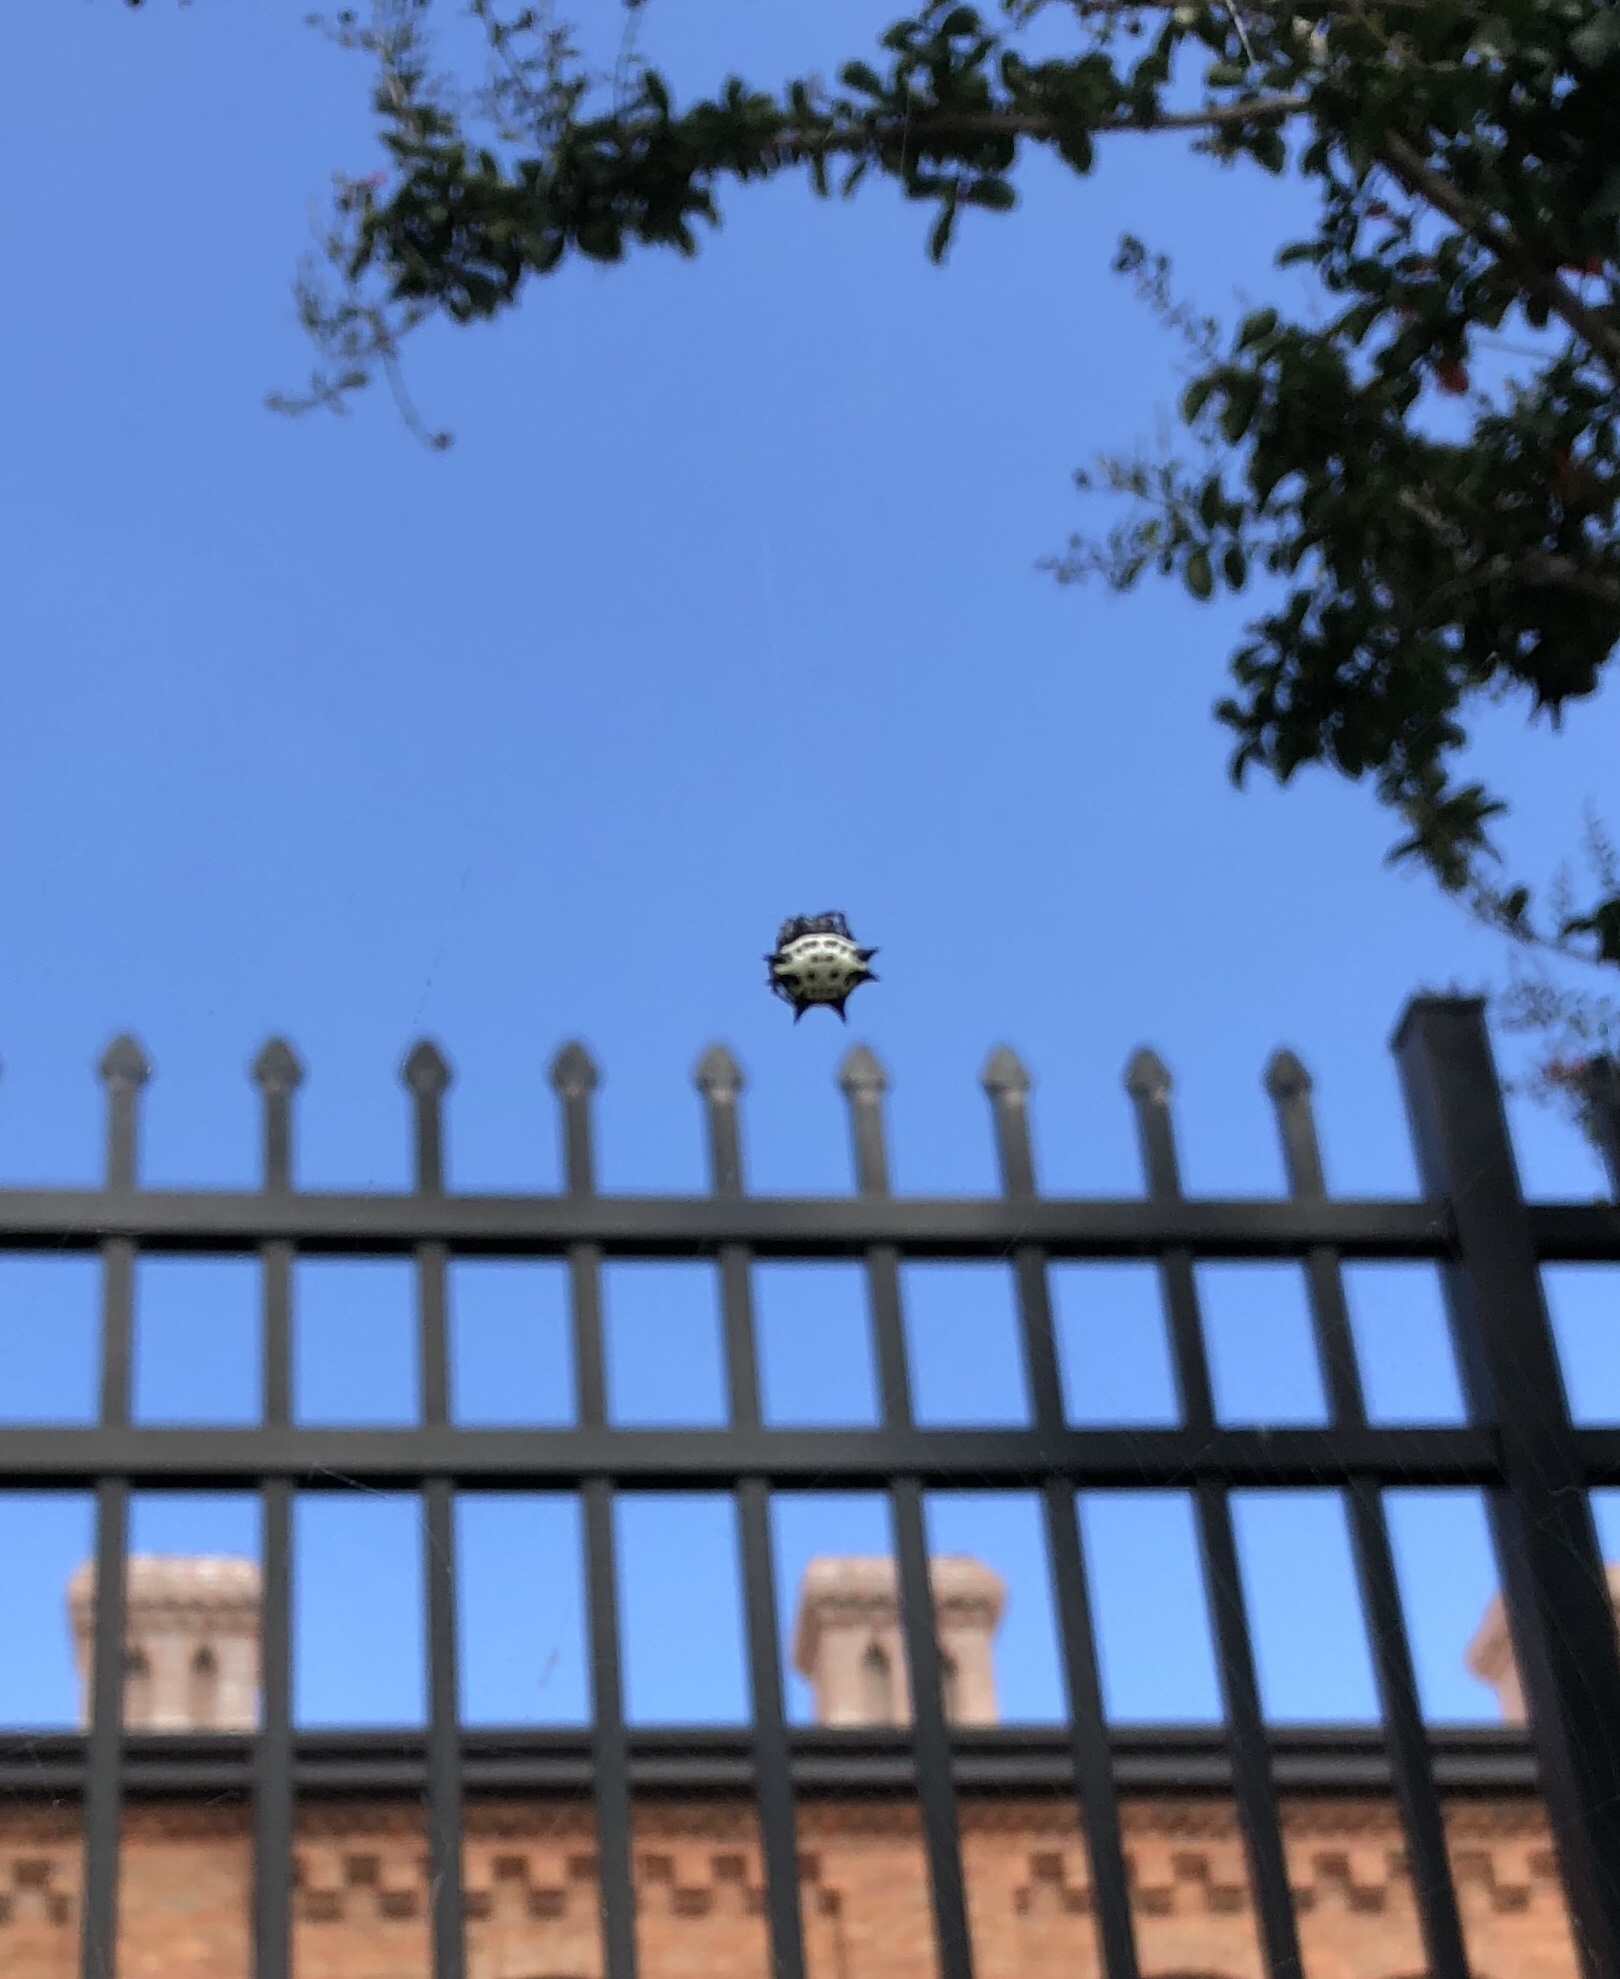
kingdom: Animalia
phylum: Arthropoda
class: Arachnida
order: Araneae
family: Araneidae
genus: Gasteracantha
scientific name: Gasteracantha cancriformis
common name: Orb weavers
